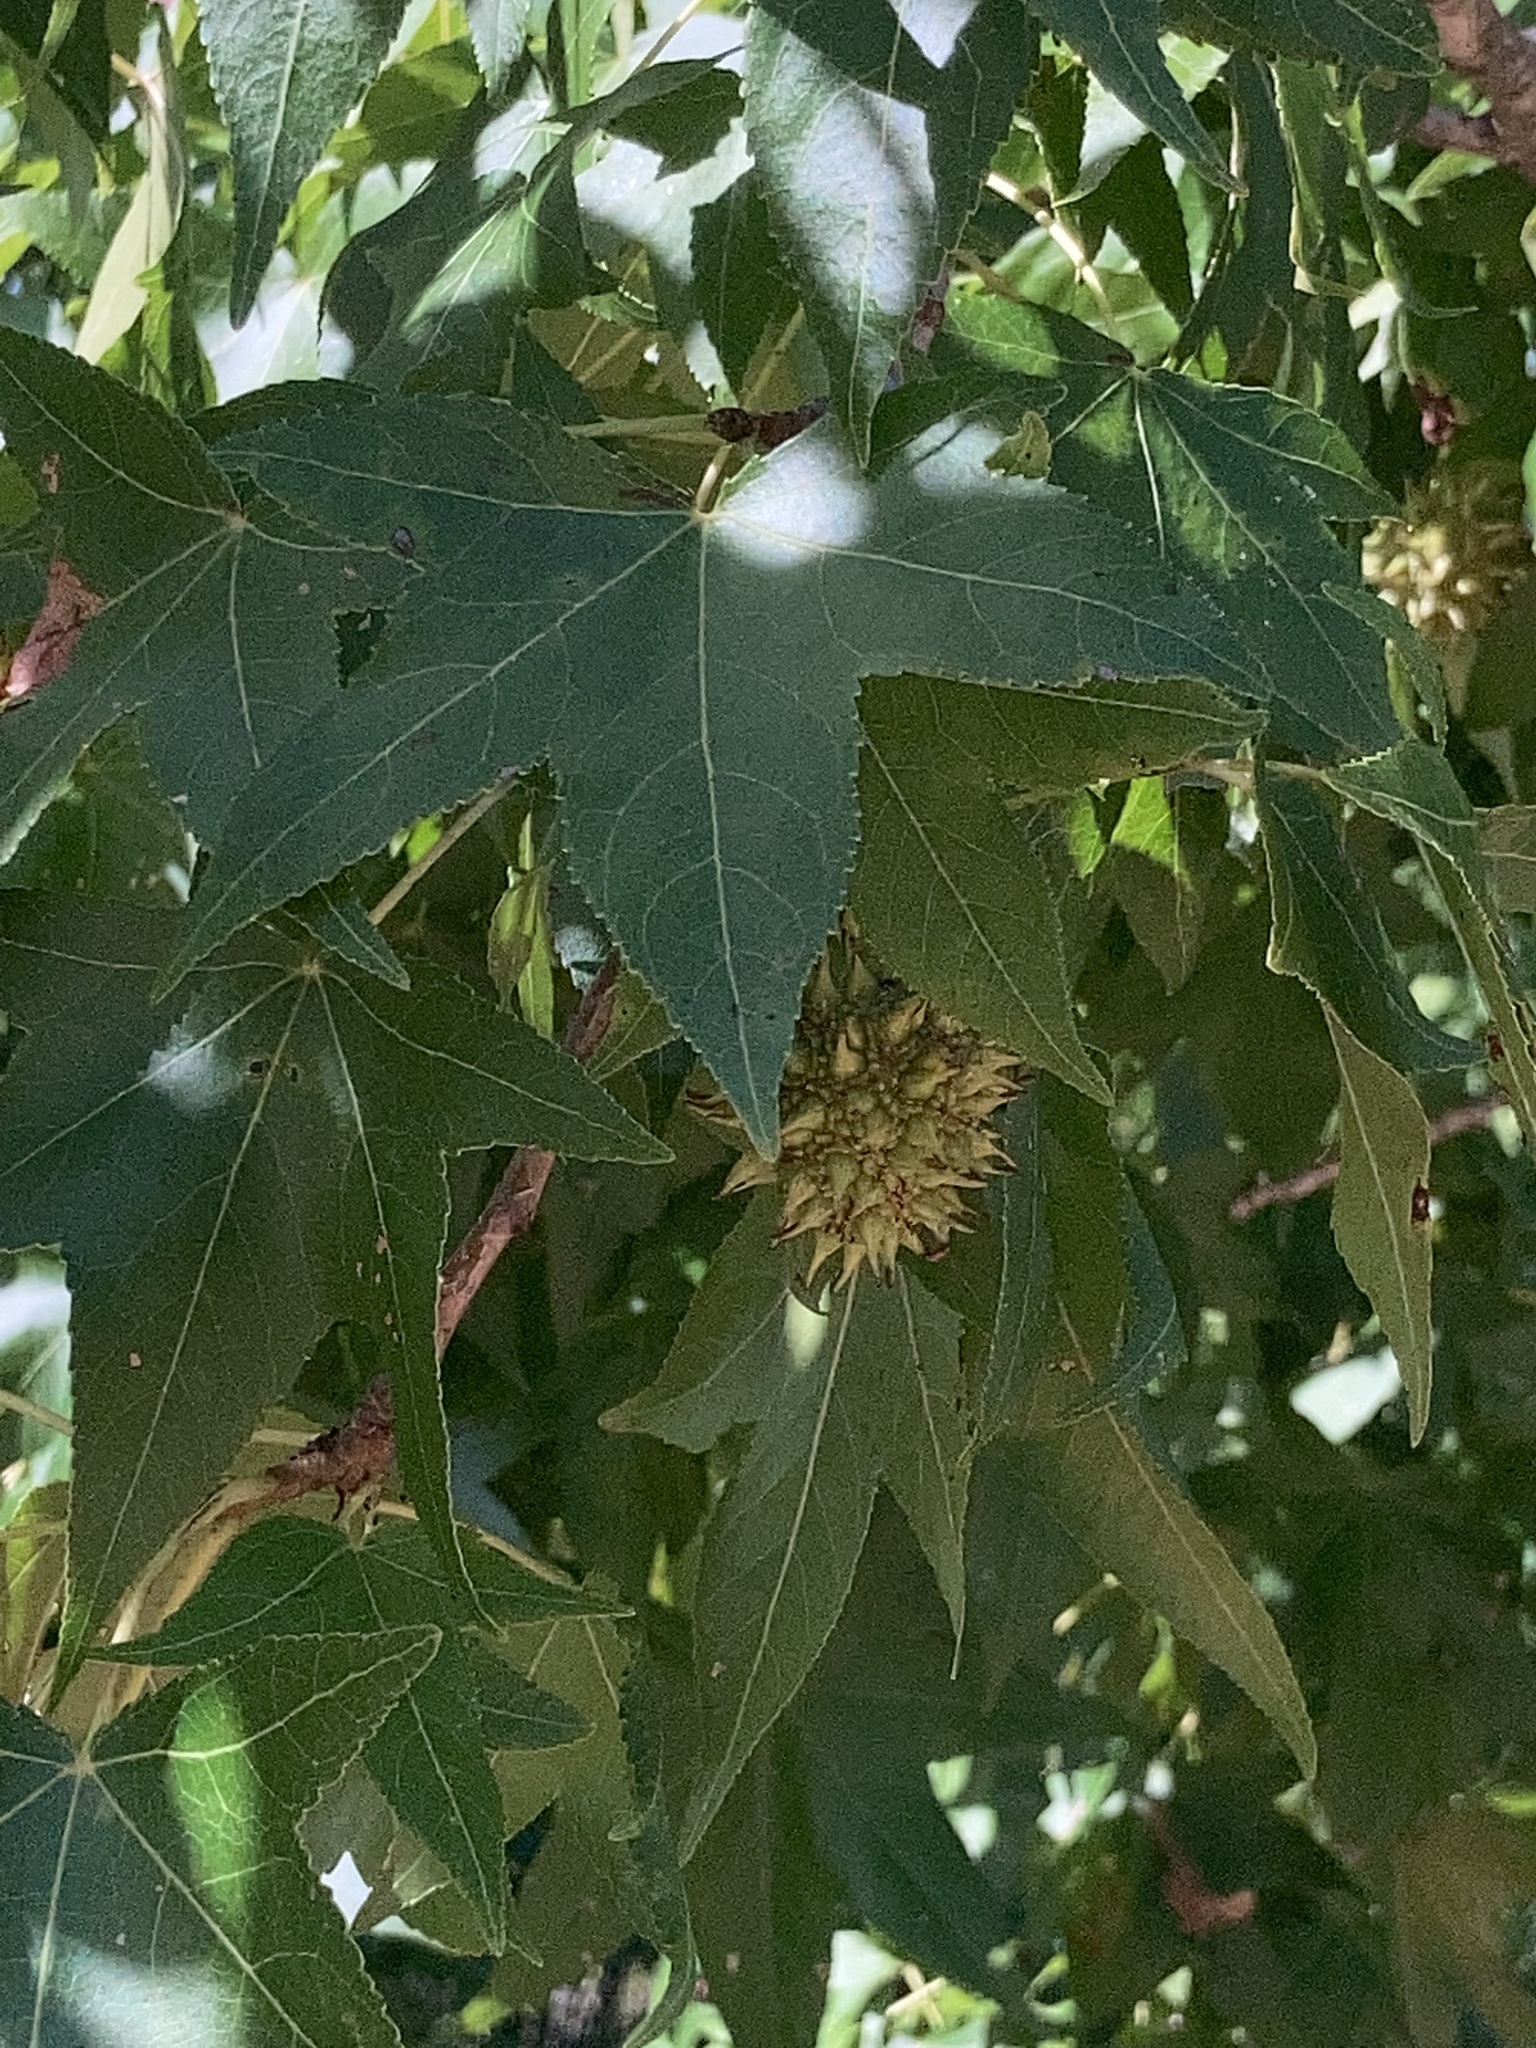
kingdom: Plantae
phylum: Tracheophyta
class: Magnoliopsida
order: Saxifragales
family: Altingiaceae
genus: Liquidambar
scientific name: Liquidambar styraciflua
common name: Sweet gum
